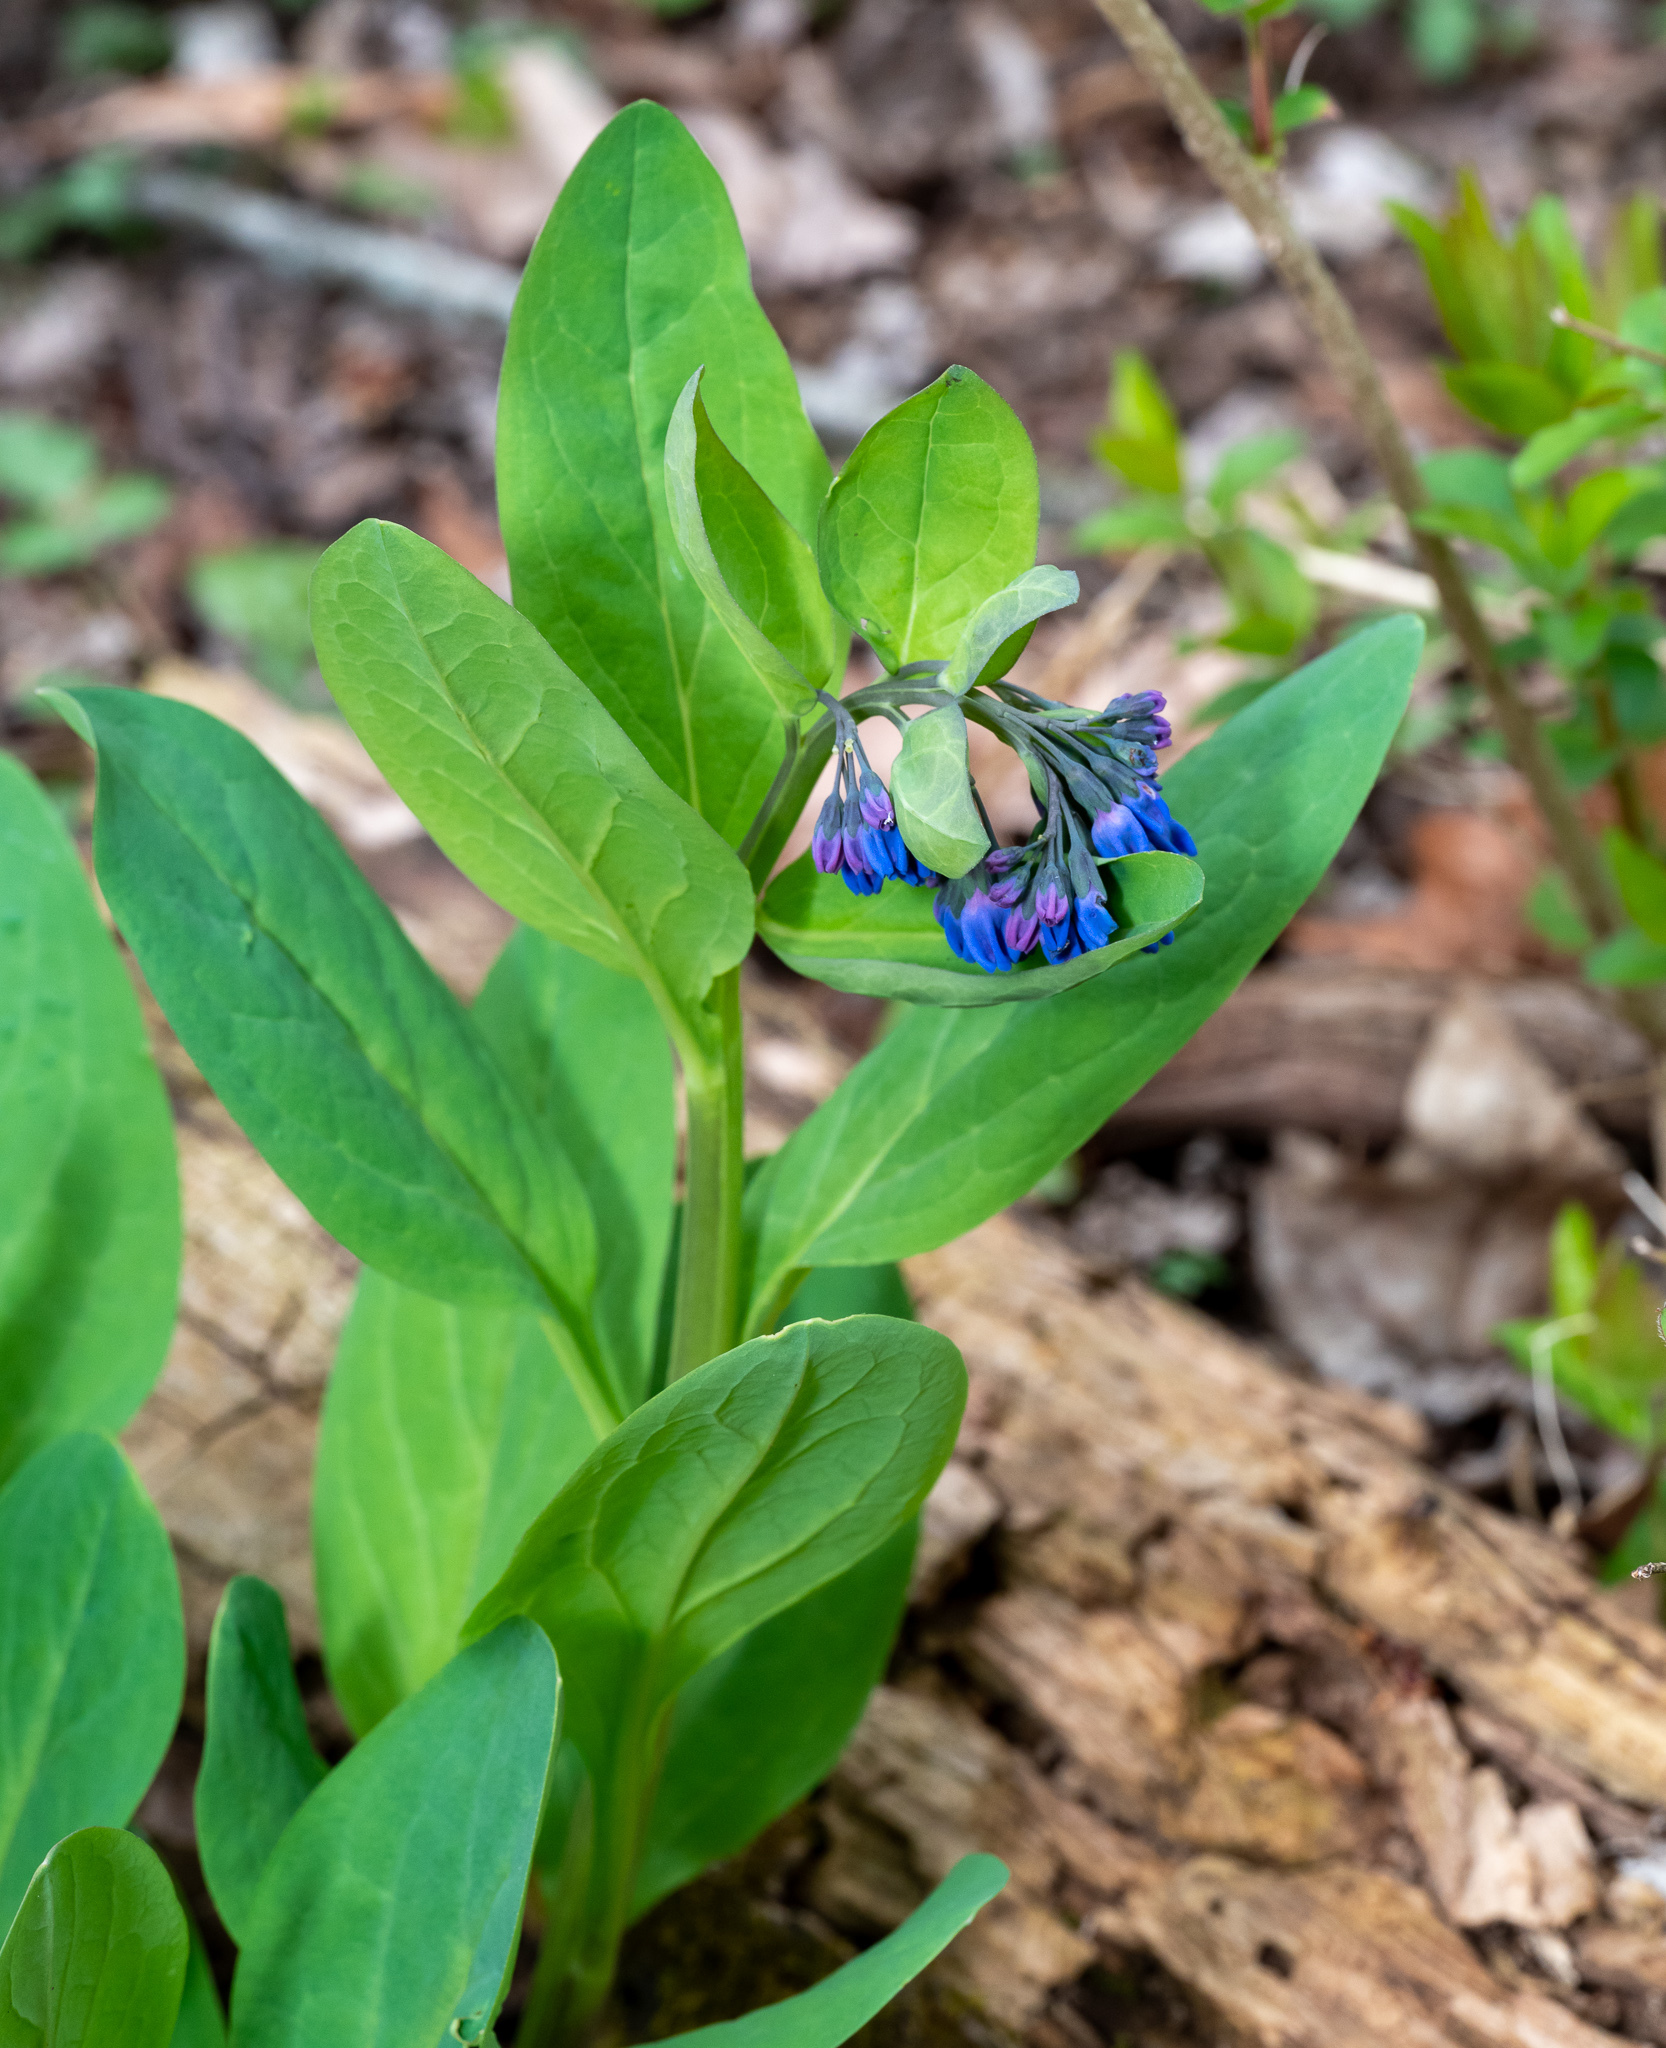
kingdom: Plantae
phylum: Tracheophyta
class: Magnoliopsida
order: Boraginales
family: Boraginaceae
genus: Mertensia
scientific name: Mertensia virginica
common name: Virginia bluebells
